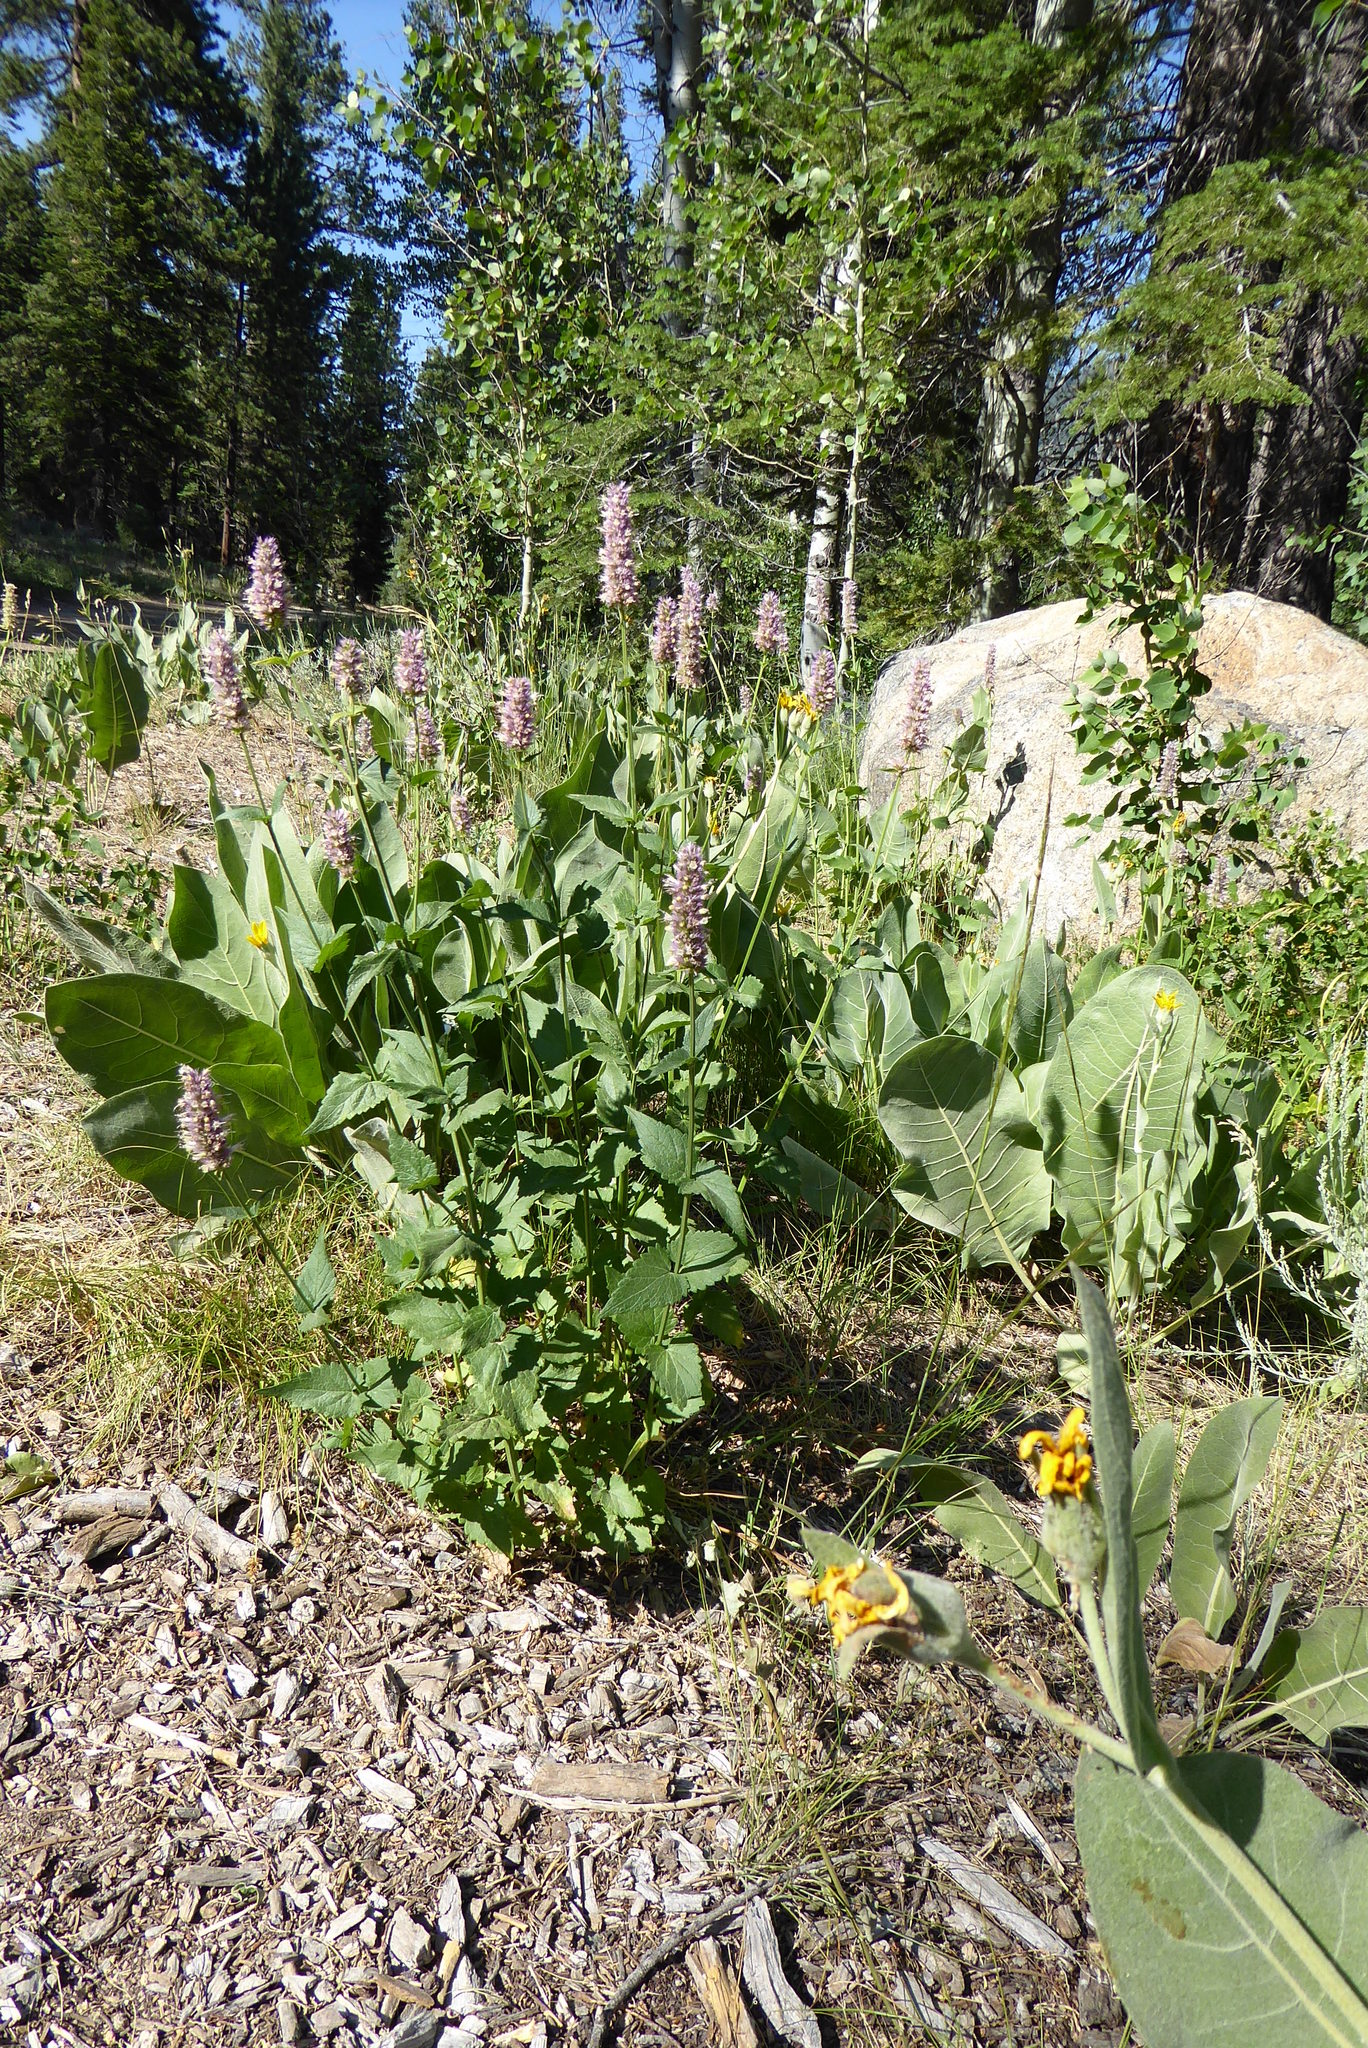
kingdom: Plantae
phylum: Tracheophyta
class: Magnoliopsida
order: Lamiales
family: Lamiaceae
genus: Agastache
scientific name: Agastache urticifolia
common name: Horsemint giant hyssop
